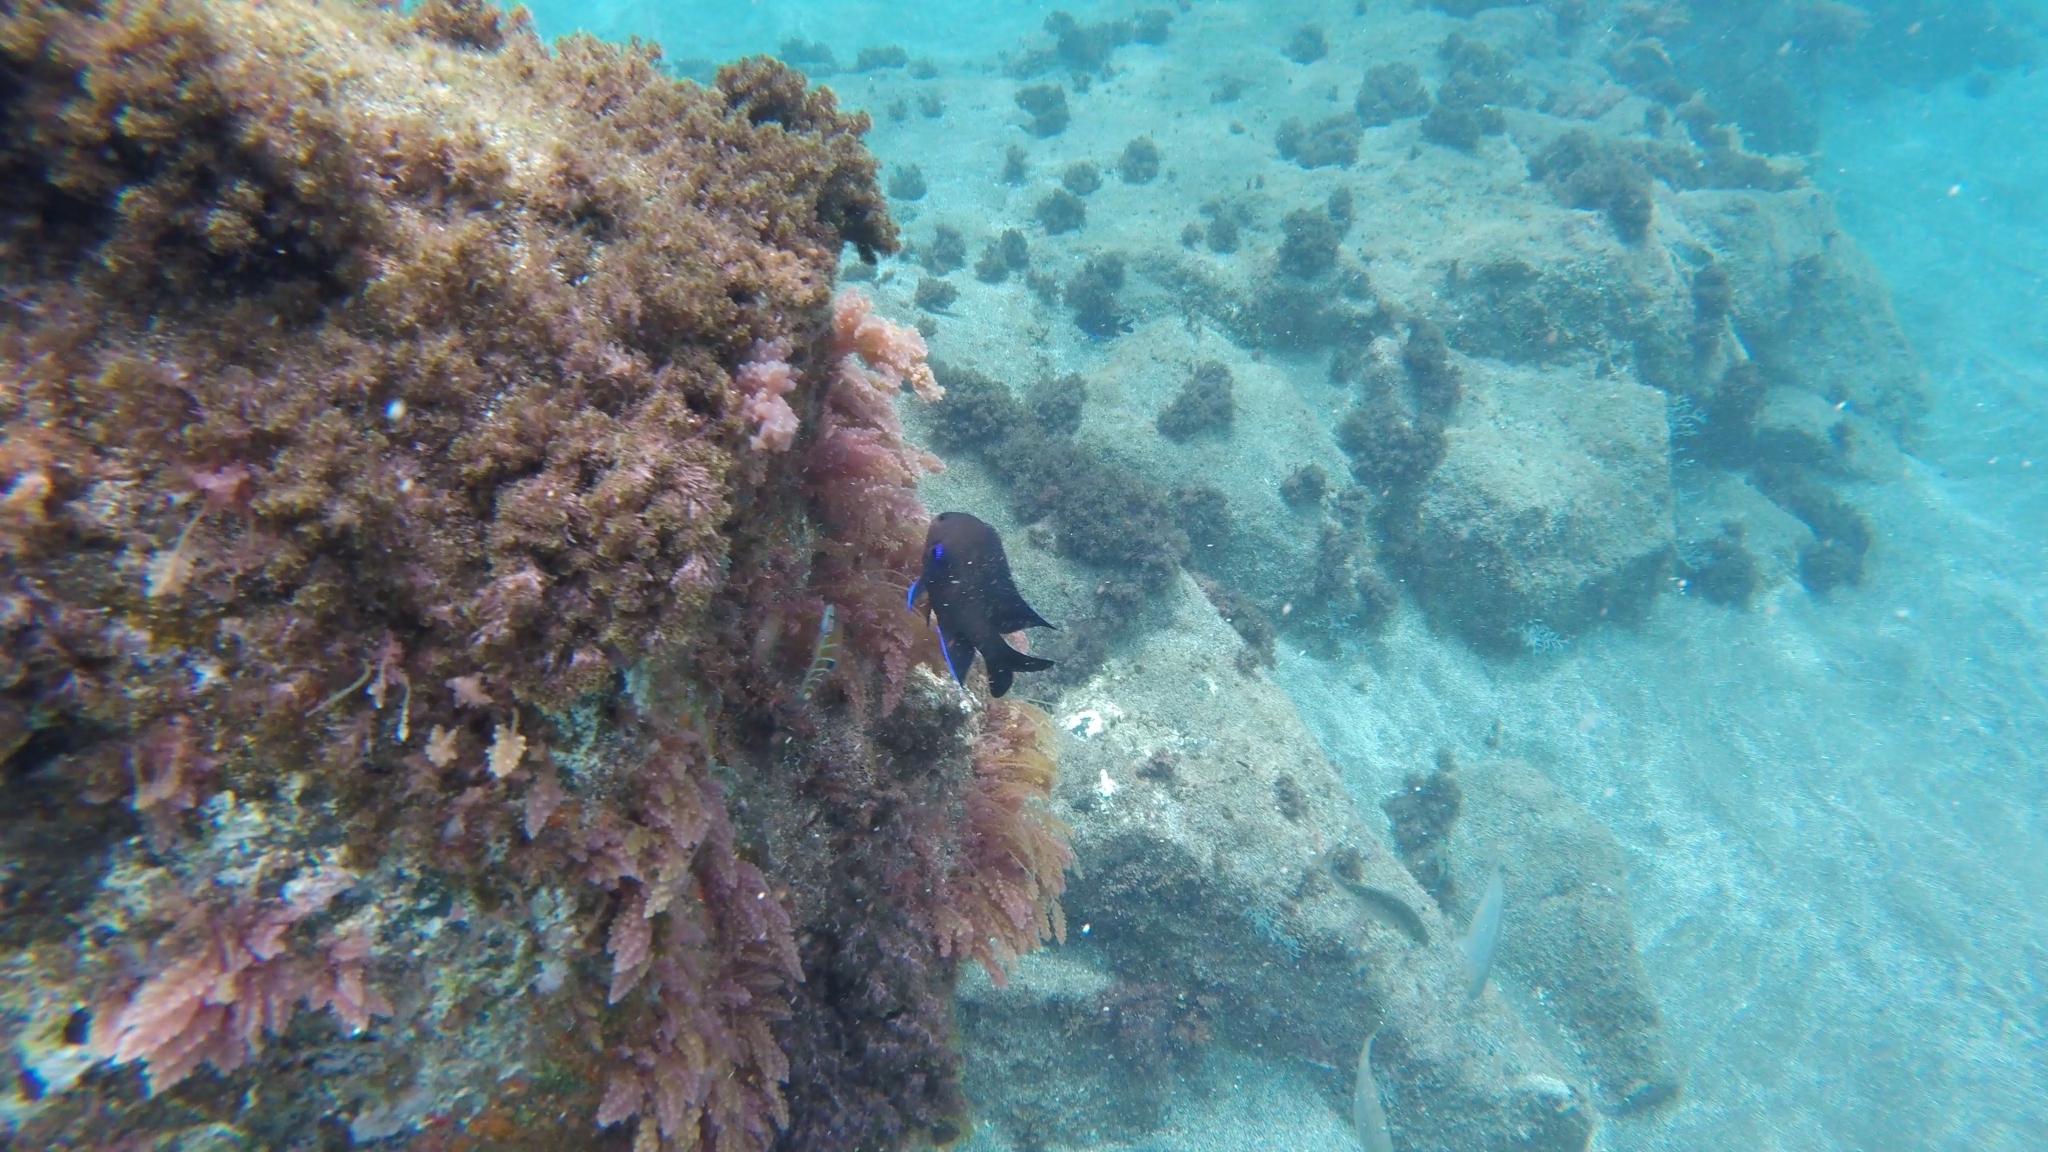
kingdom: Animalia
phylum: Chordata
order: Perciformes
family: Pomacentridae
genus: Similiparma
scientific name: Similiparma lurida
